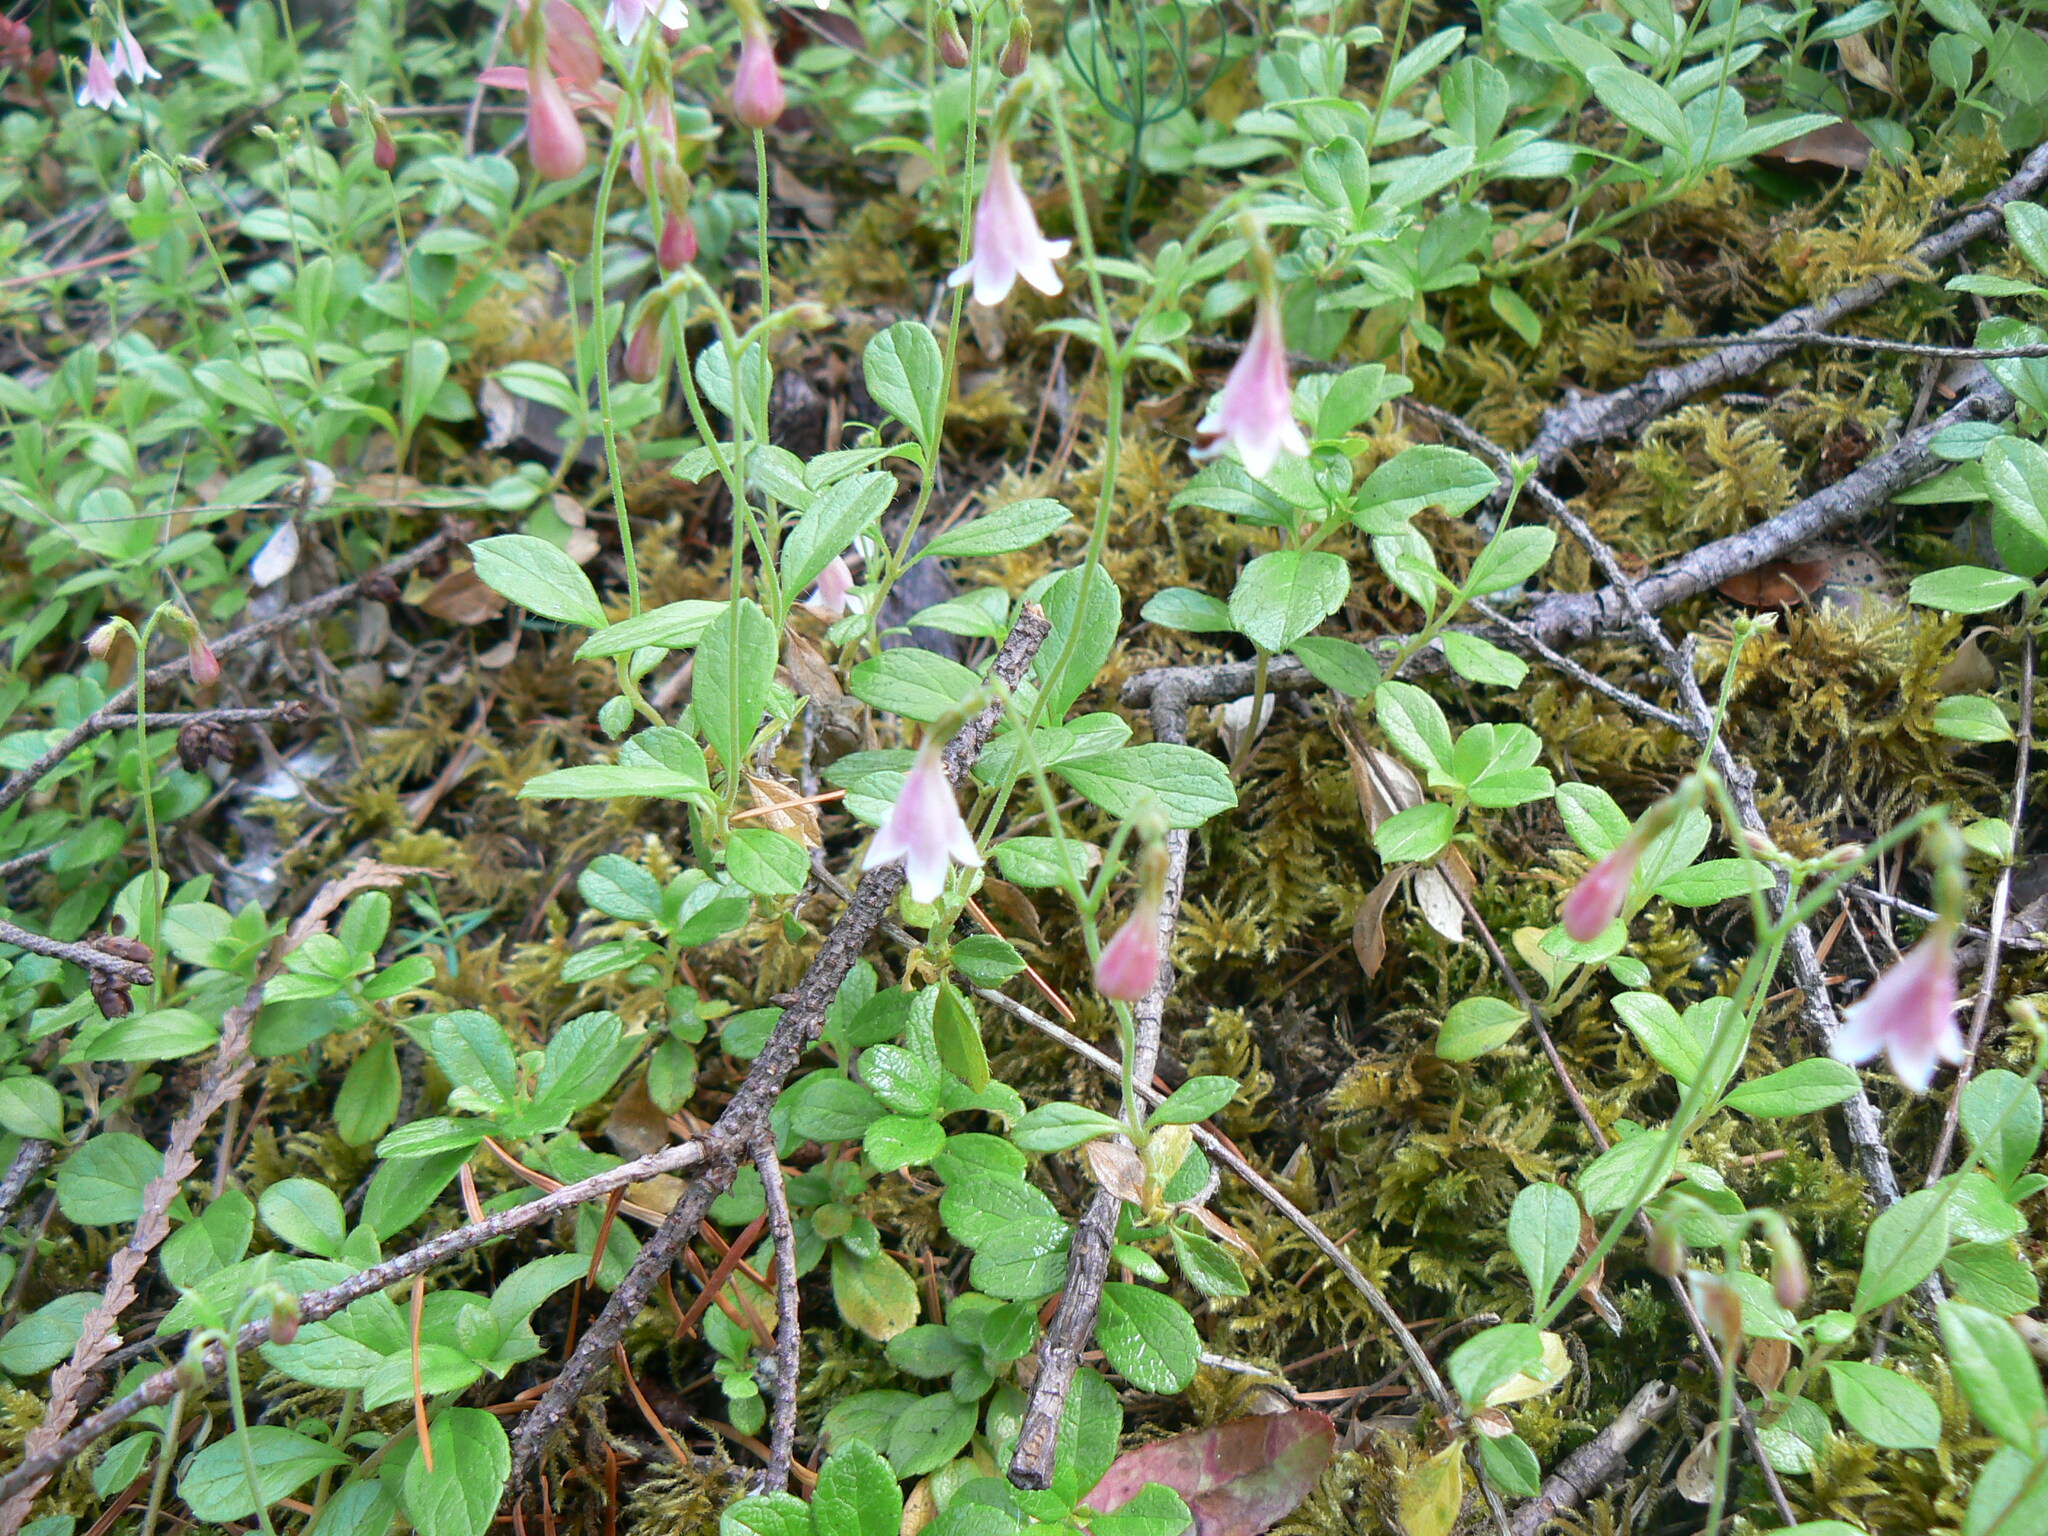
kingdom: Plantae
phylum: Tracheophyta
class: Magnoliopsida
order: Dipsacales
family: Caprifoliaceae
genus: Linnaea
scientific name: Linnaea borealis
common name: Twinflower
